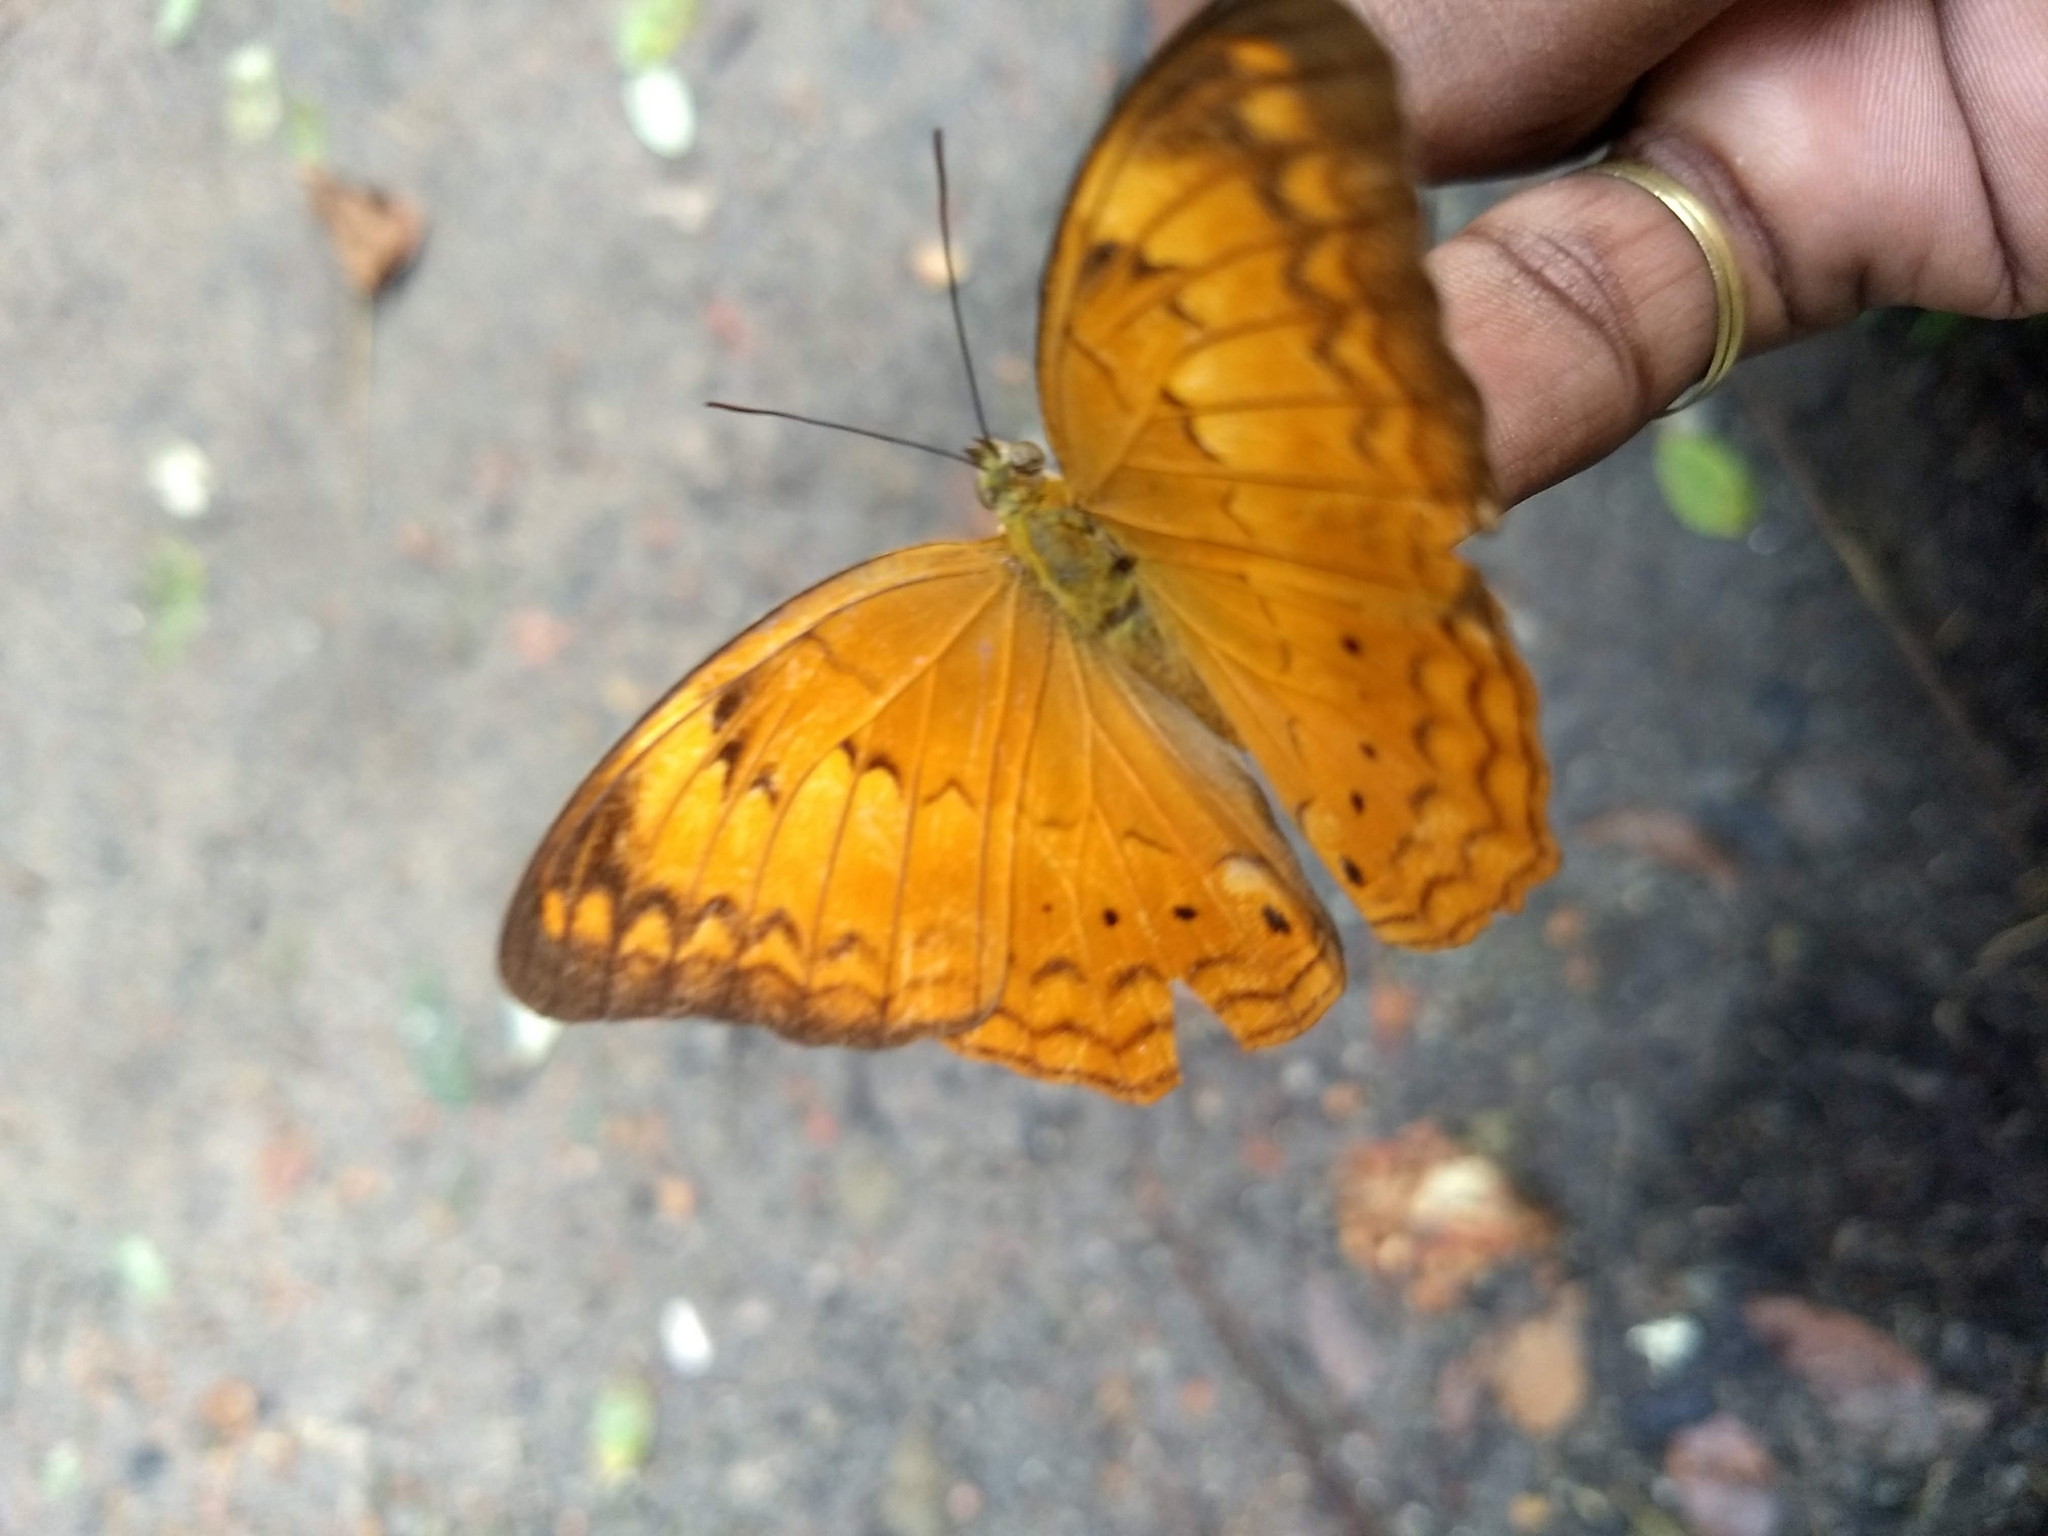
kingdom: Animalia
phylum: Arthropoda
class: Insecta
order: Lepidoptera
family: Nymphalidae
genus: Cirrochroa
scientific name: Cirrochroa thais
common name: Tamil yeoman
